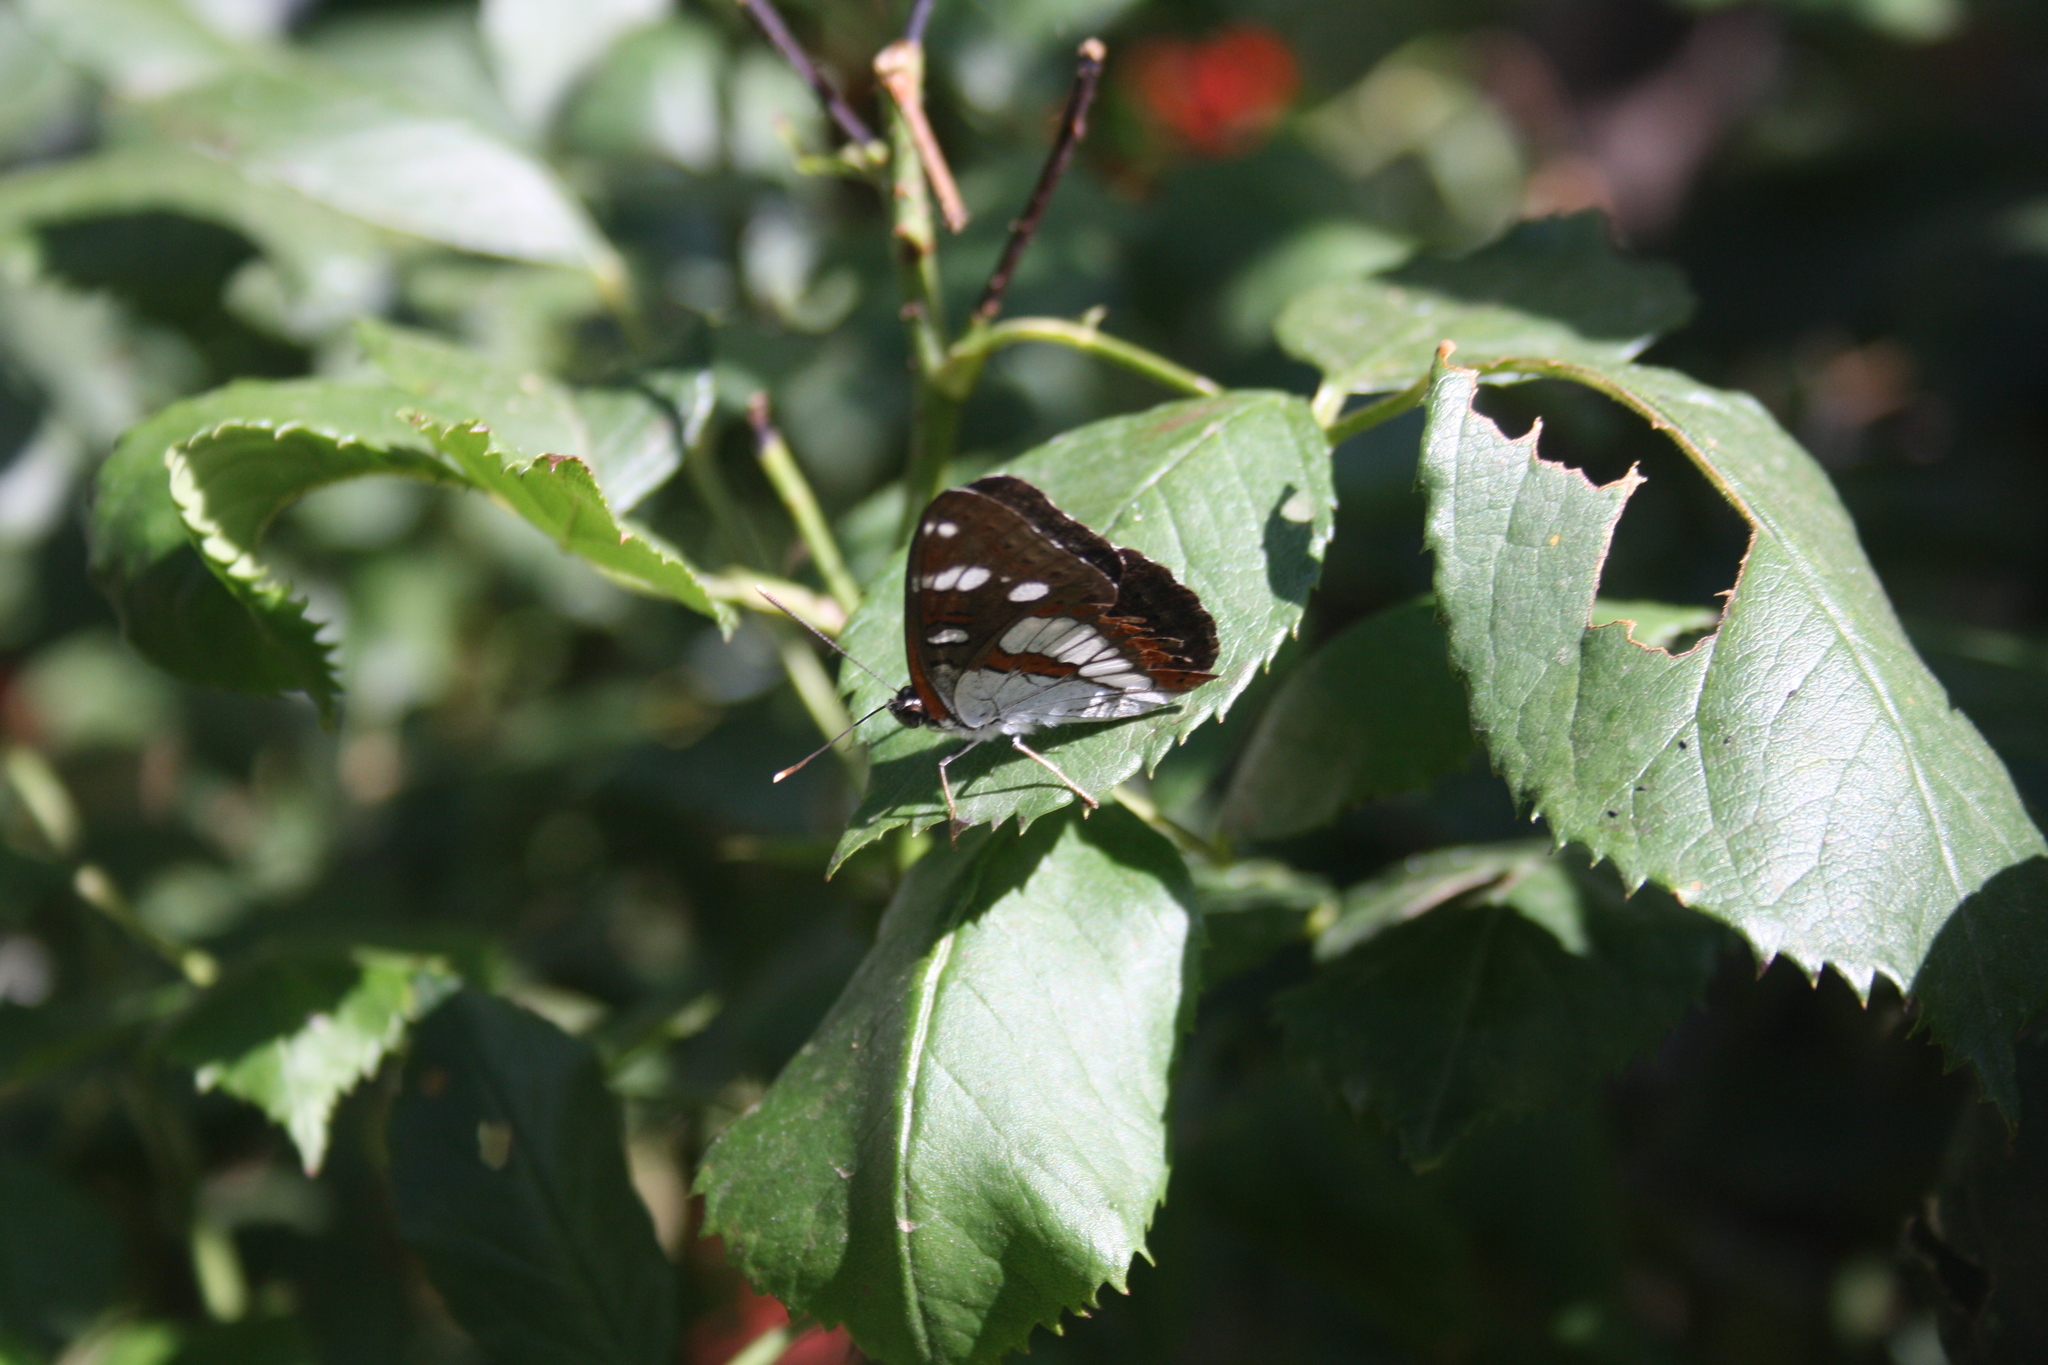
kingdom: Animalia
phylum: Arthropoda
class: Insecta
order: Lepidoptera
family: Nymphalidae
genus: Limenitis
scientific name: Limenitis reducta
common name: Southern white admiral
